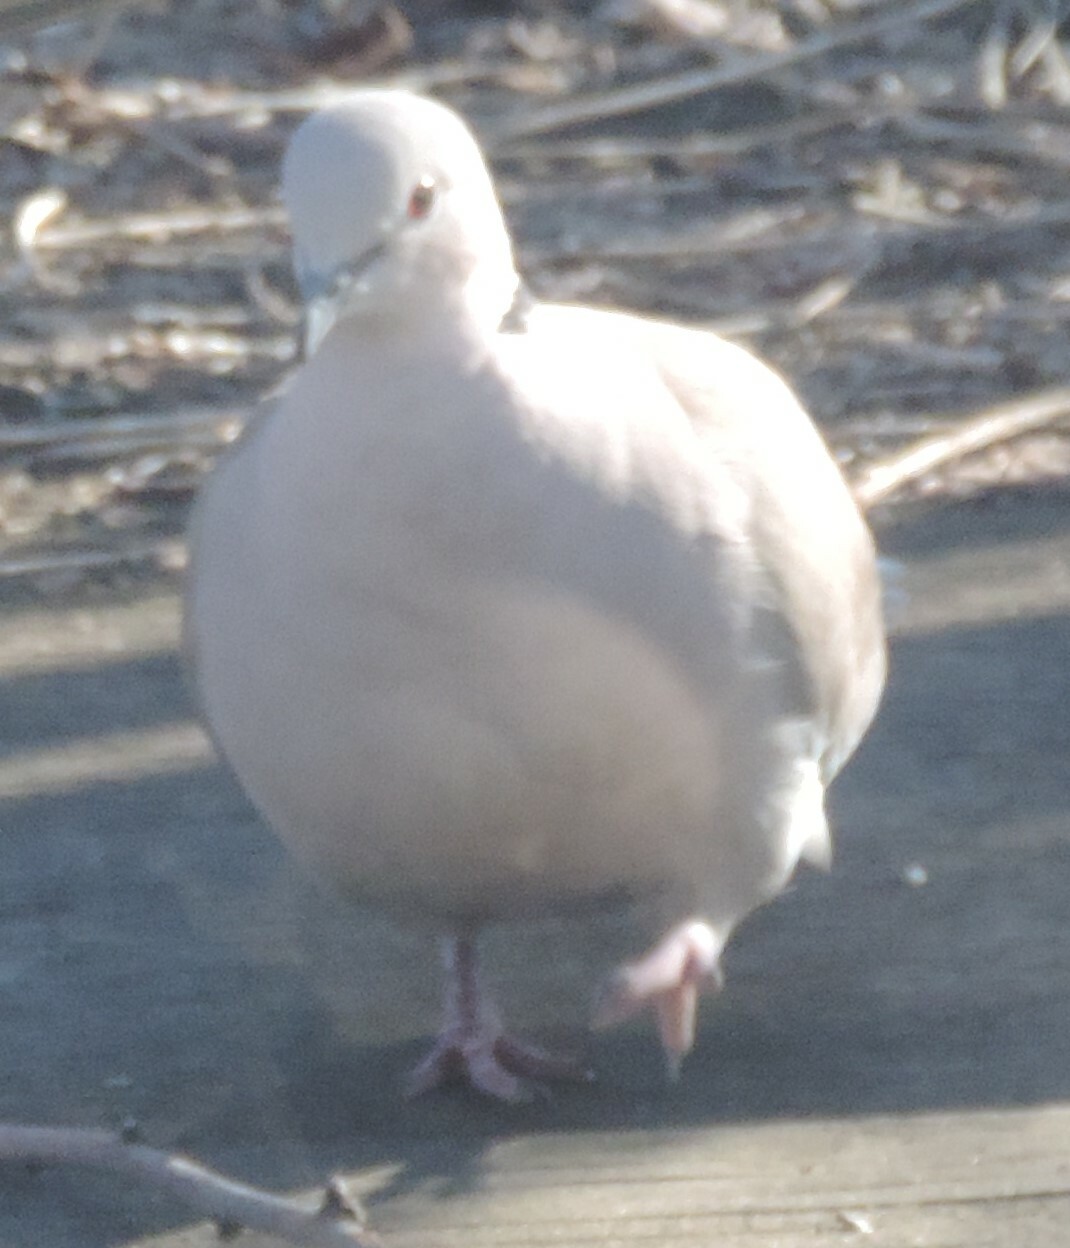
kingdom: Animalia
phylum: Chordata
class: Aves
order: Columbiformes
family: Columbidae
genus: Streptopelia
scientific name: Streptopelia decaocto
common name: Eurasian collared dove
